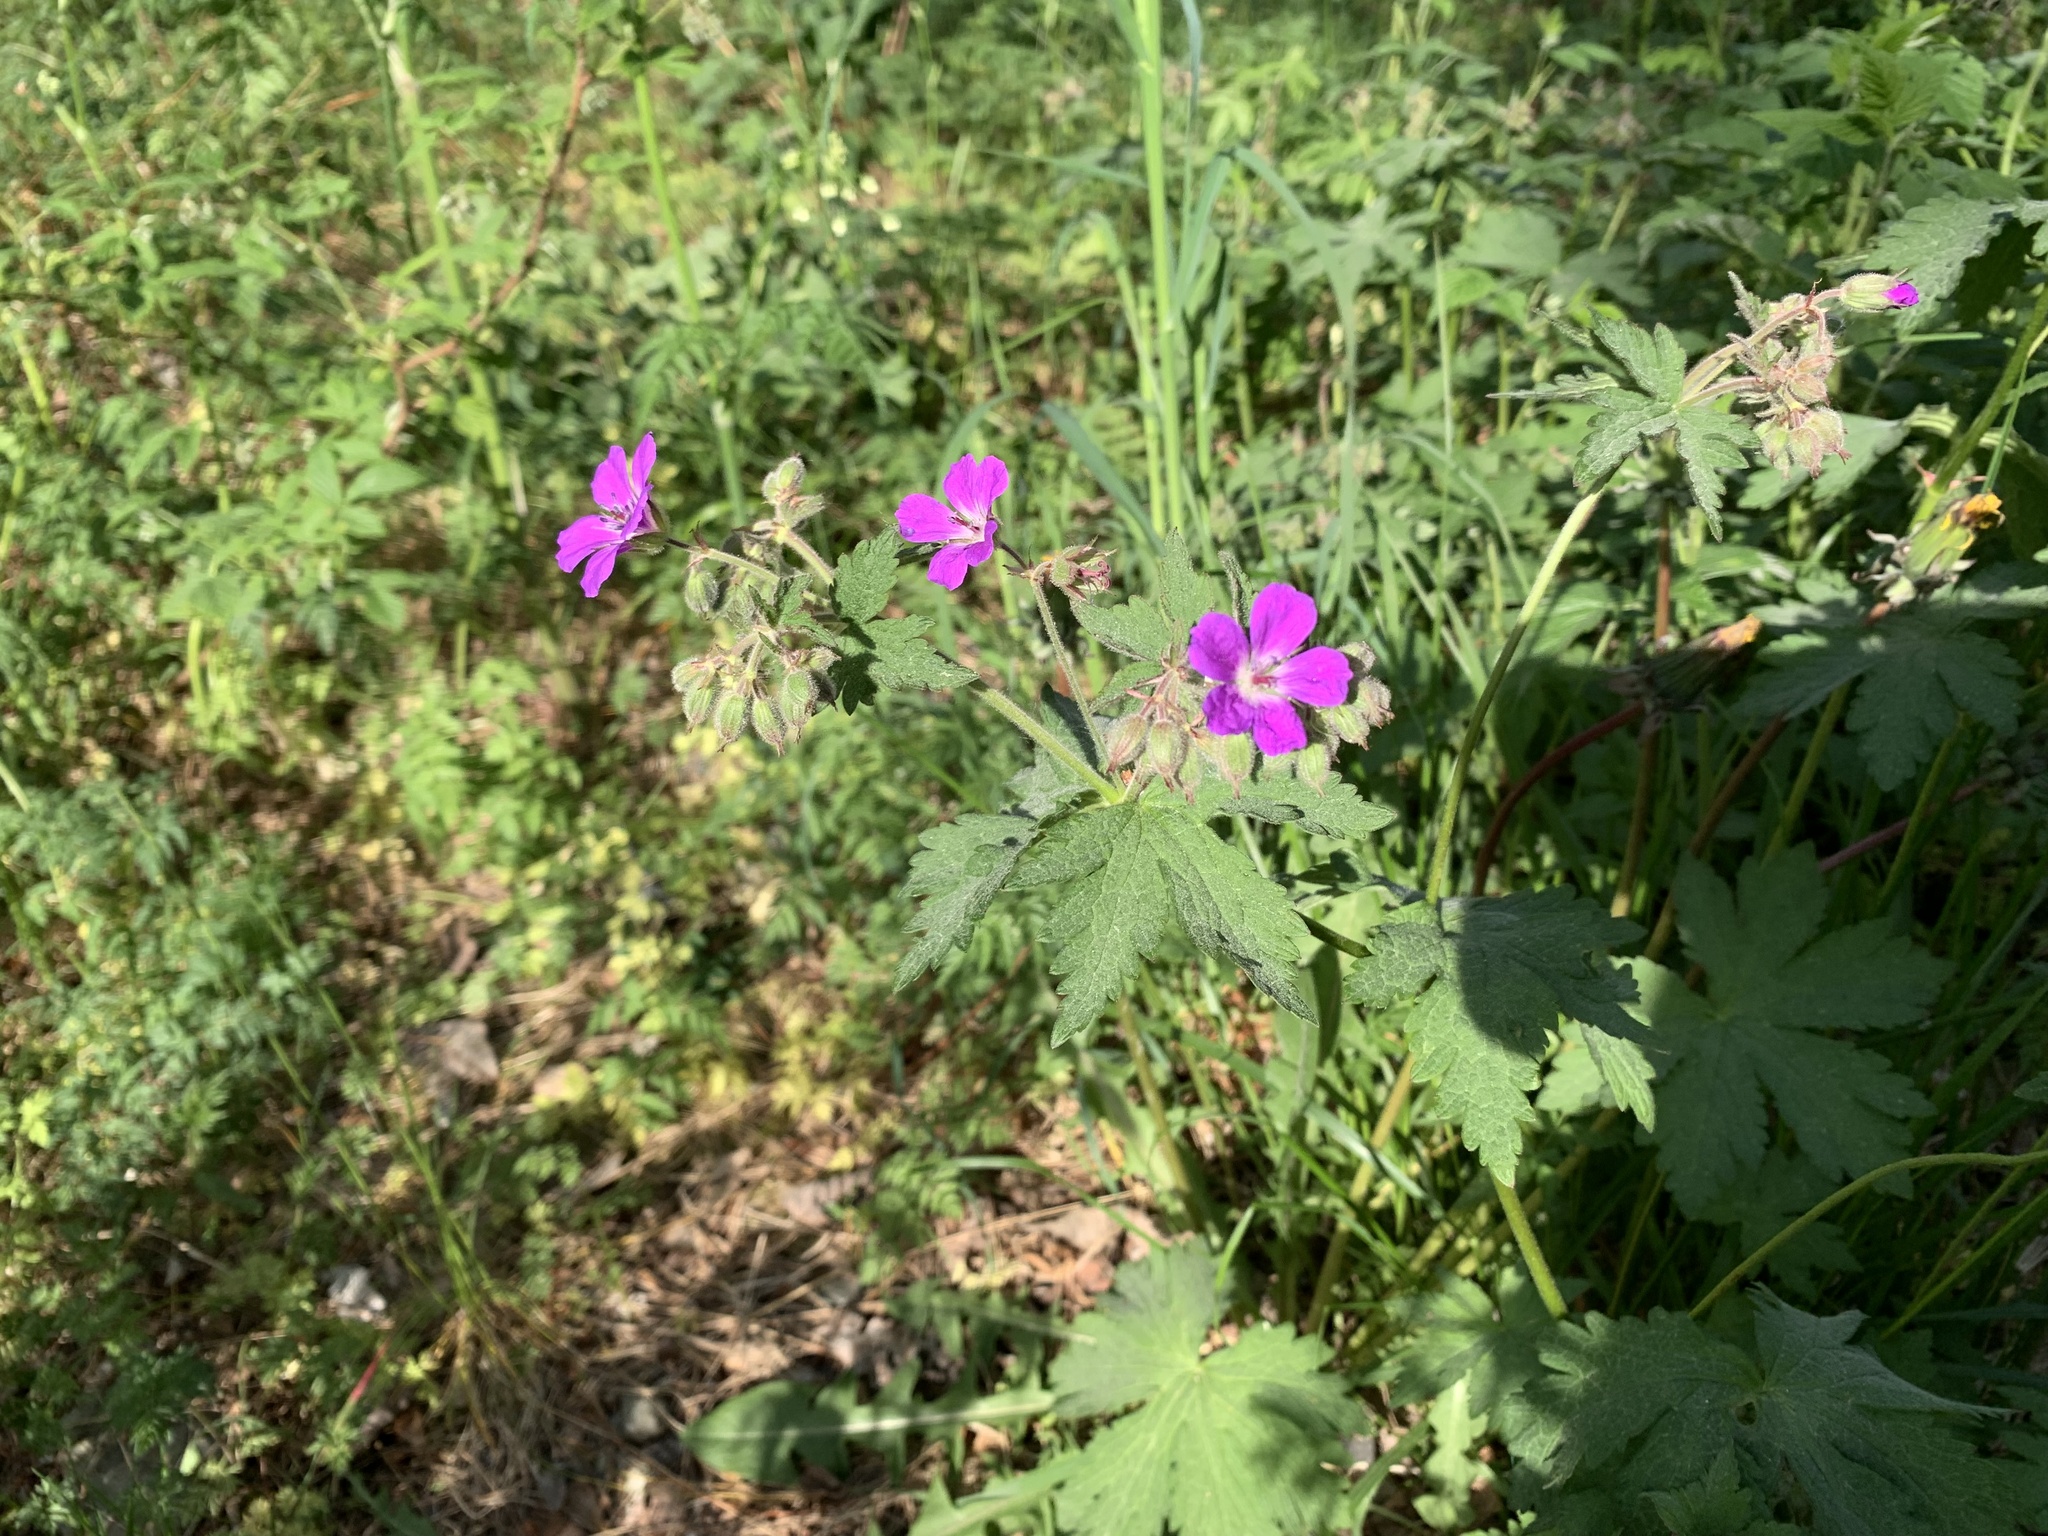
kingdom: Plantae
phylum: Tracheophyta
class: Magnoliopsida
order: Geraniales
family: Geraniaceae
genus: Geranium
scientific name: Geranium sylvaticum
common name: Wood crane's-bill
